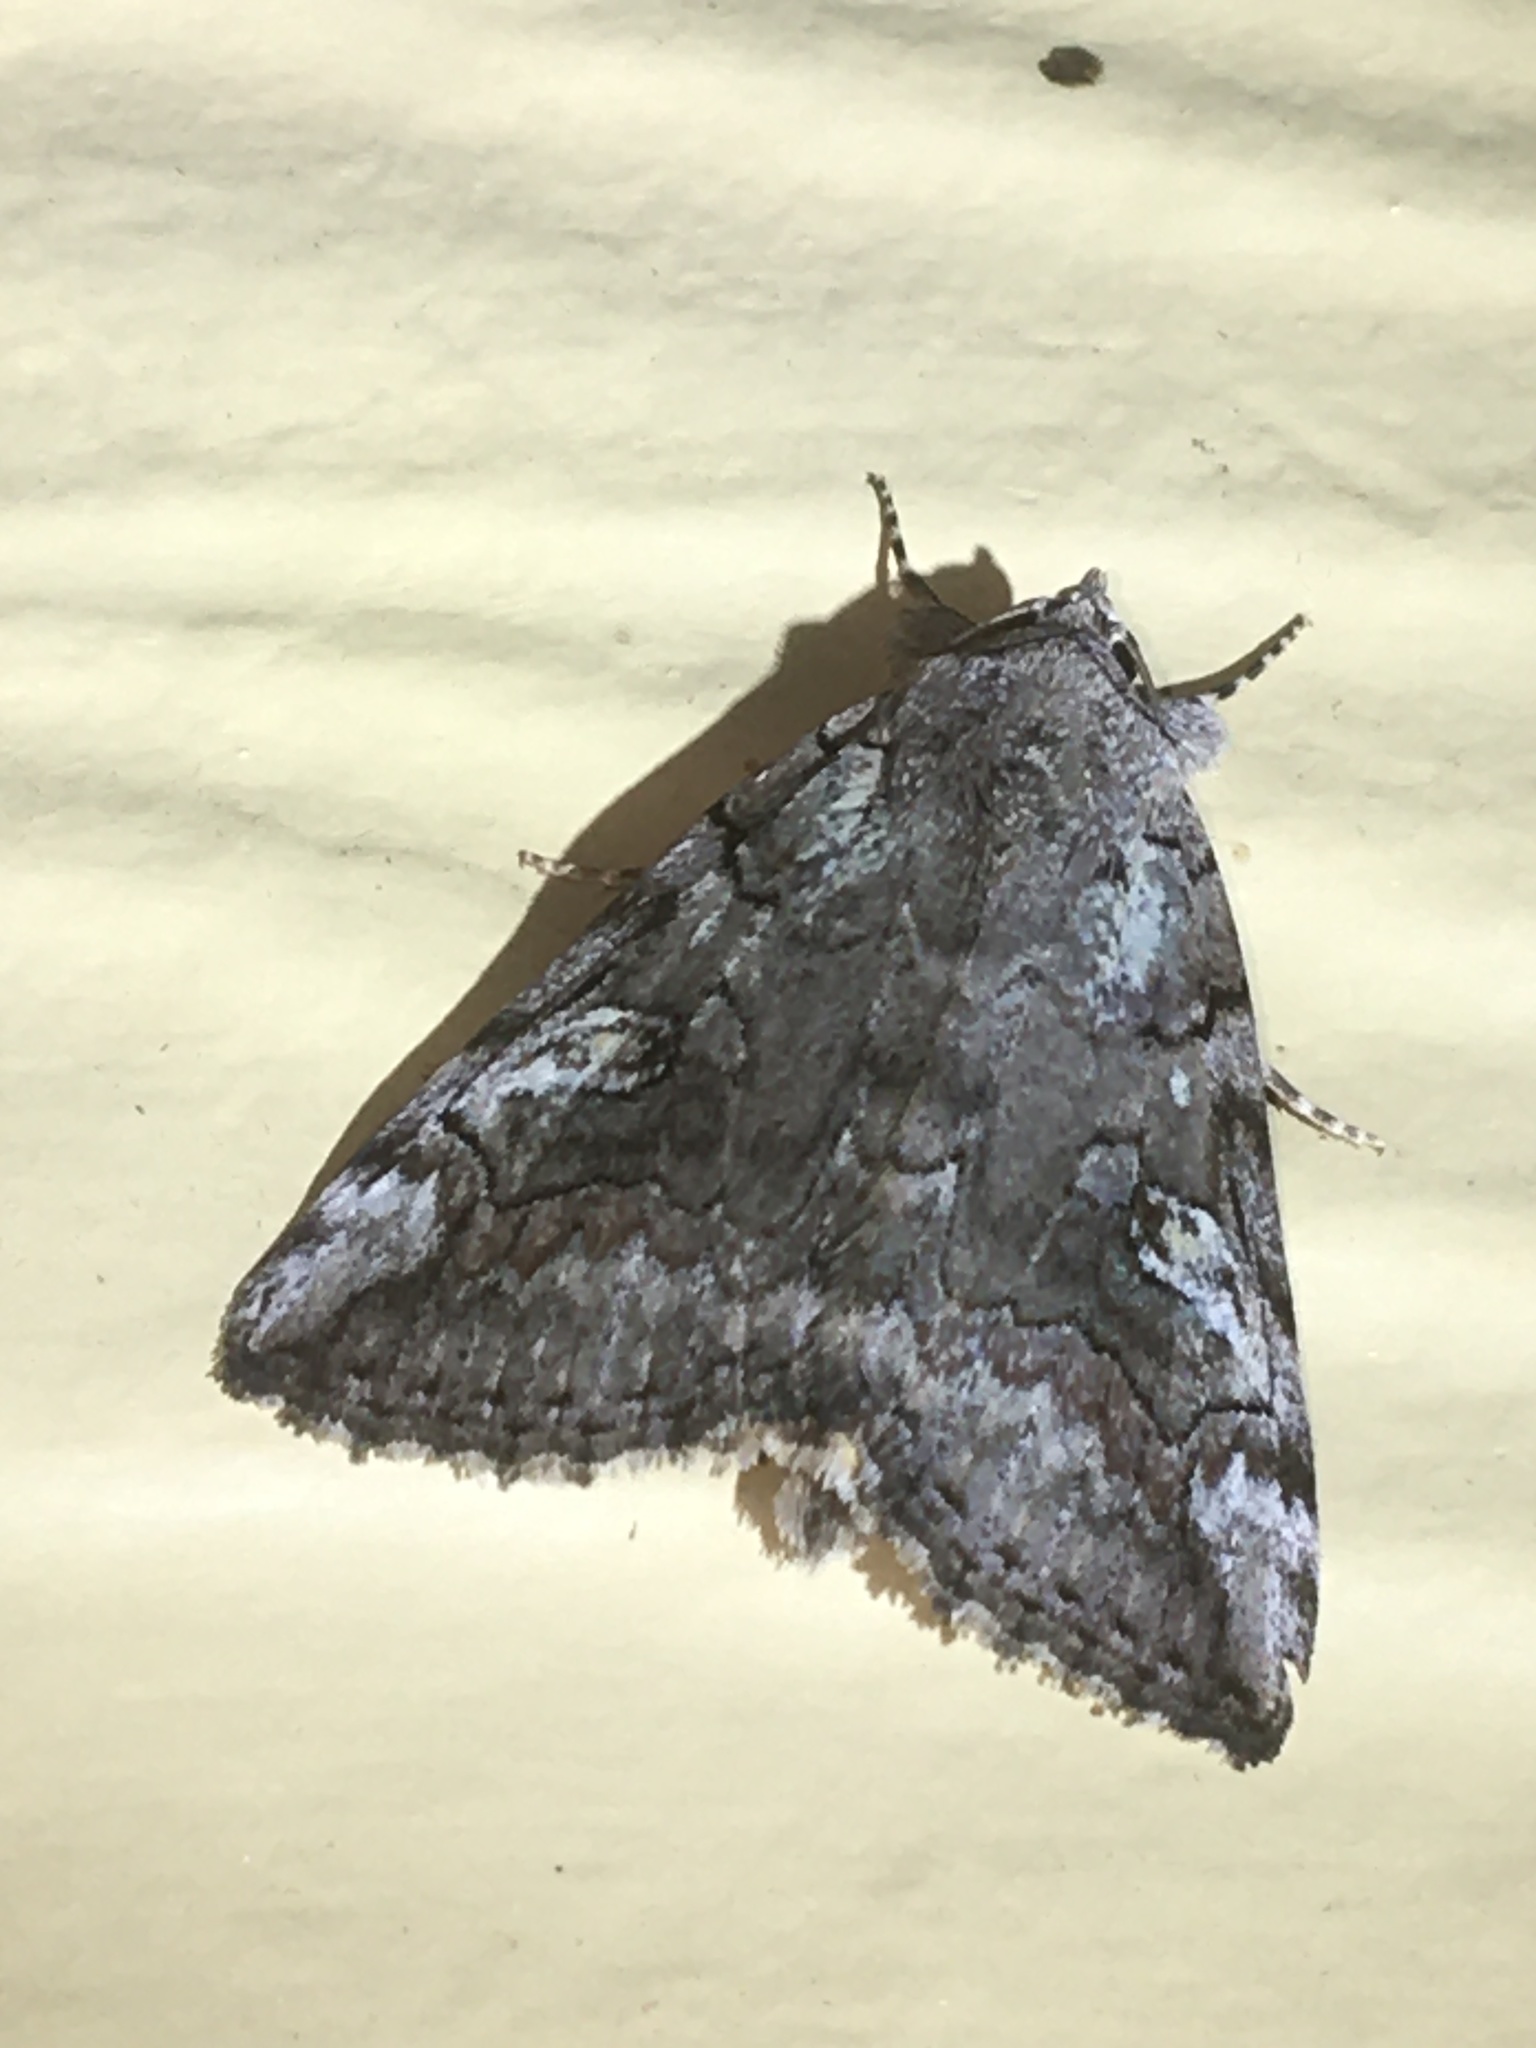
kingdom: Animalia
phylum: Arthropoda
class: Insecta
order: Lepidoptera
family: Erebidae
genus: Catocala
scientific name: Catocala similis
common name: Similar underwing
